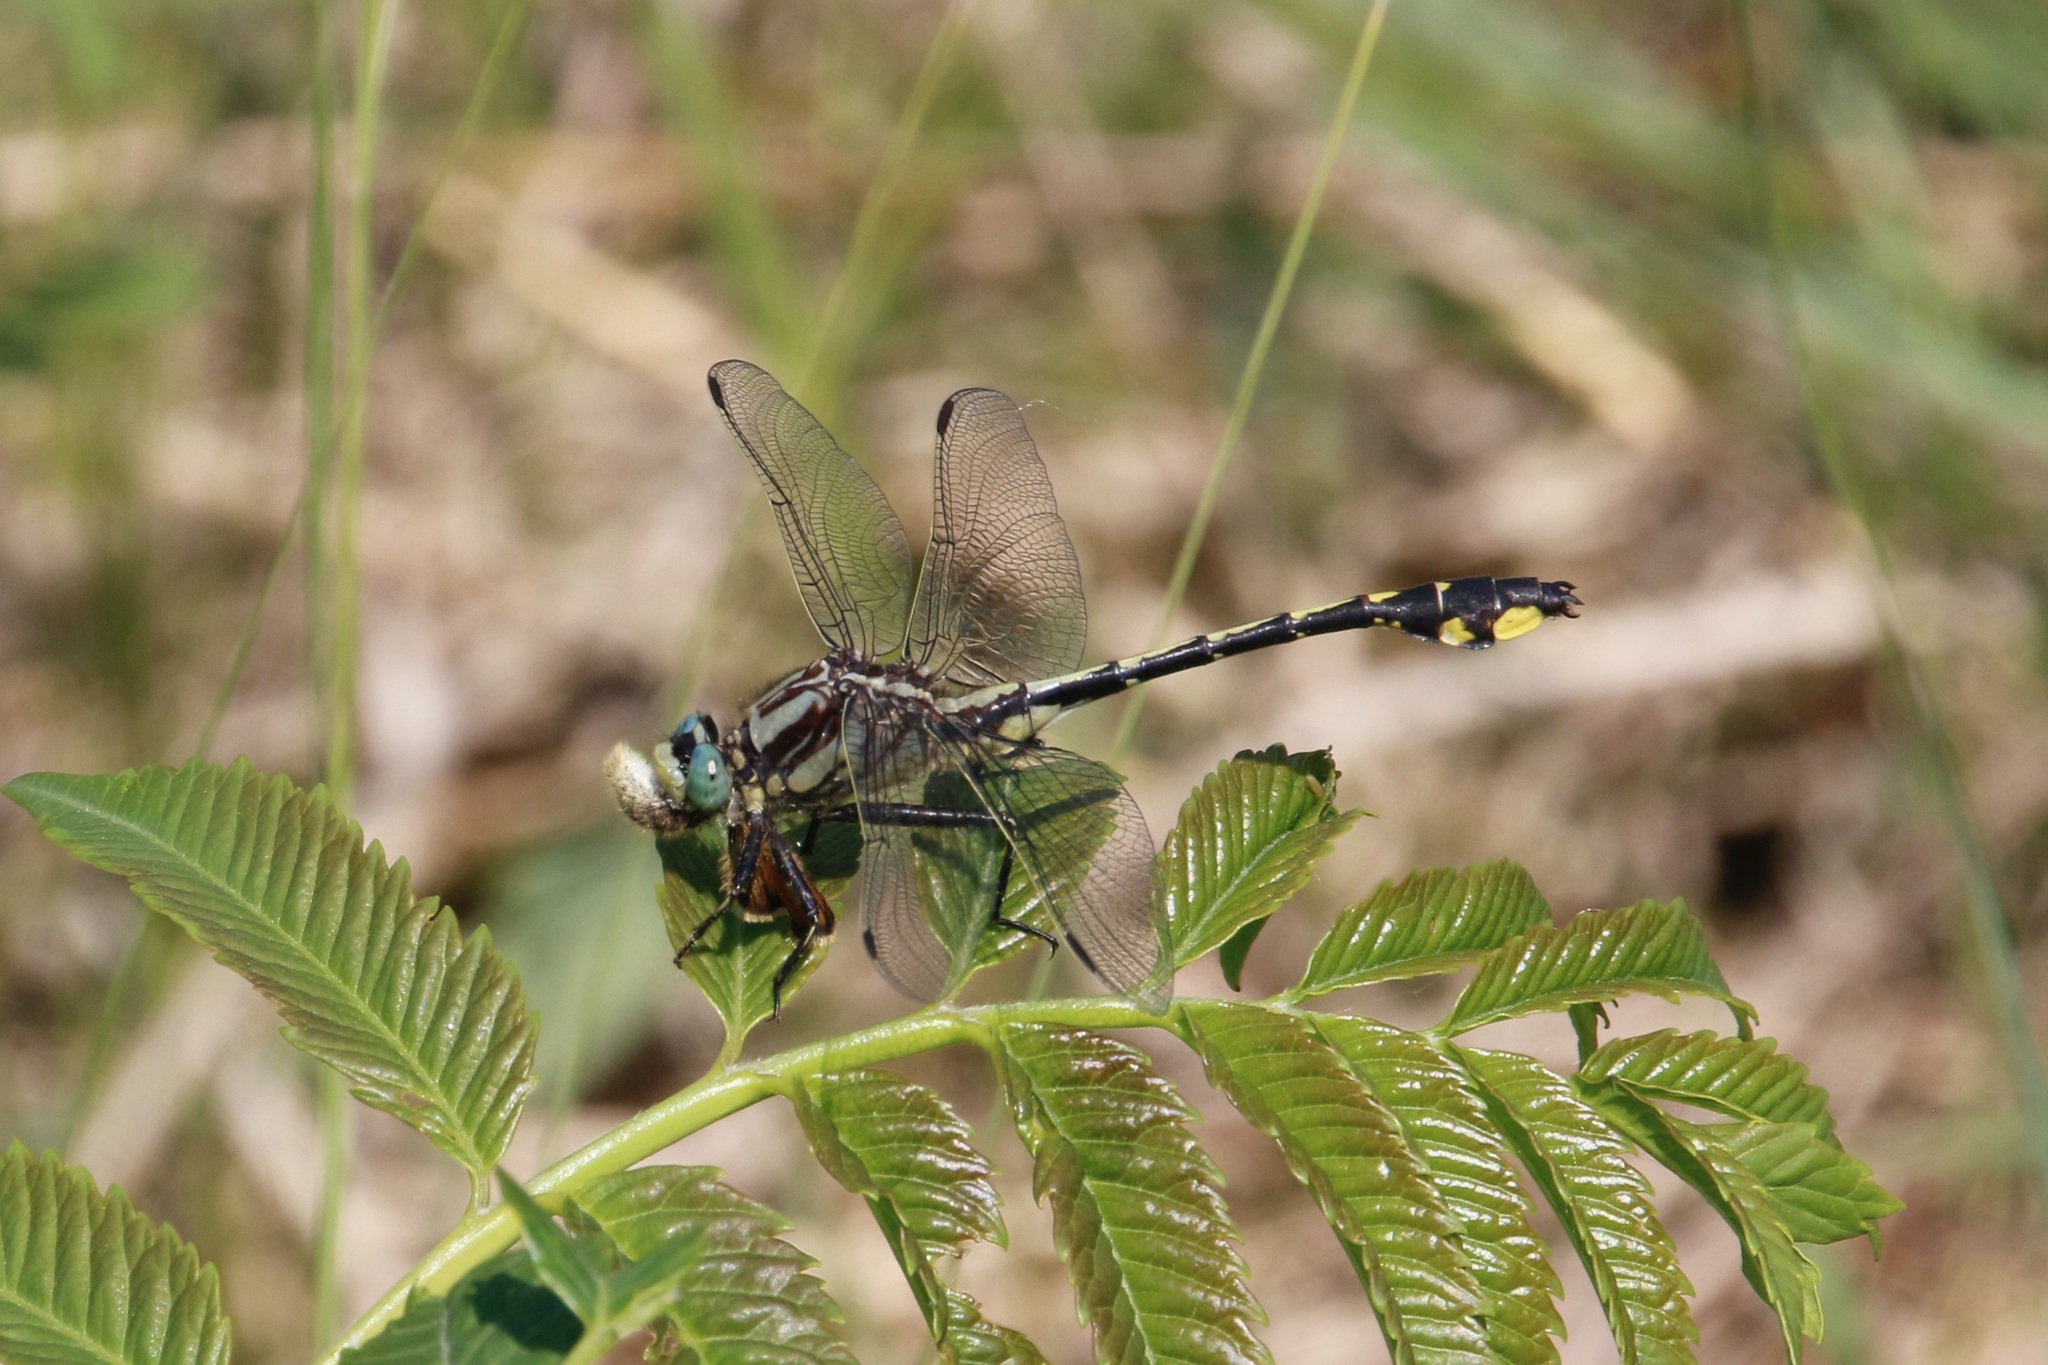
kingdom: Animalia
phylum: Arthropoda
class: Insecta
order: Odonata
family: Gomphidae
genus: Gomphurus
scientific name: Gomphurus fraternus
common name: Midland clubtail
